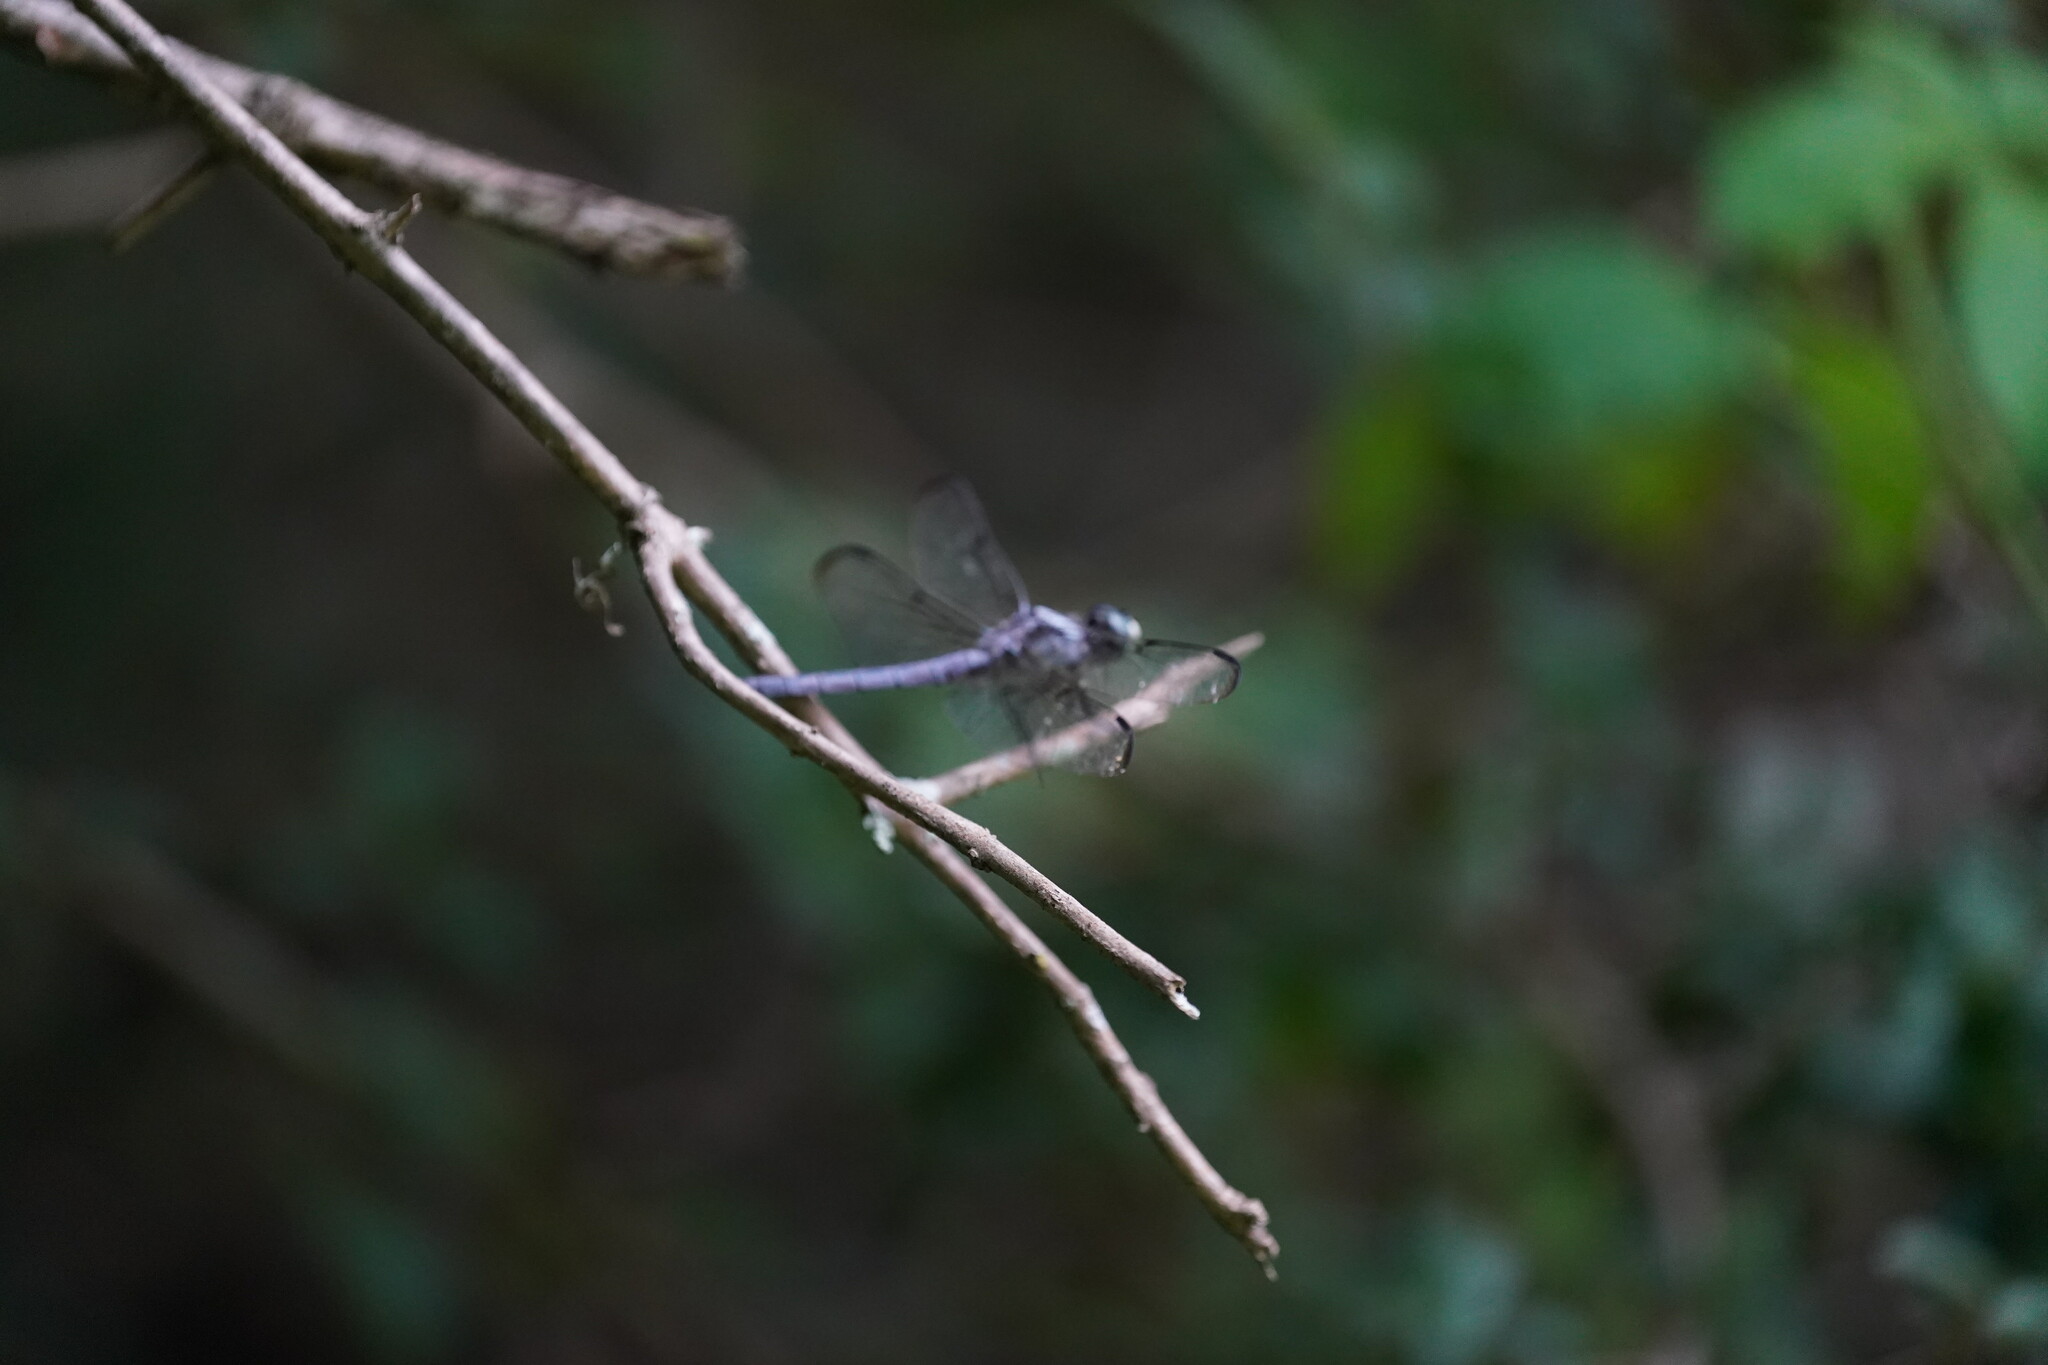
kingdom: Animalia
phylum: Arthropoda
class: Insecta
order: Odonata
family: Libellulidae
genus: Libellula
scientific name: Libellula vibrans
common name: Great blue skimmer
